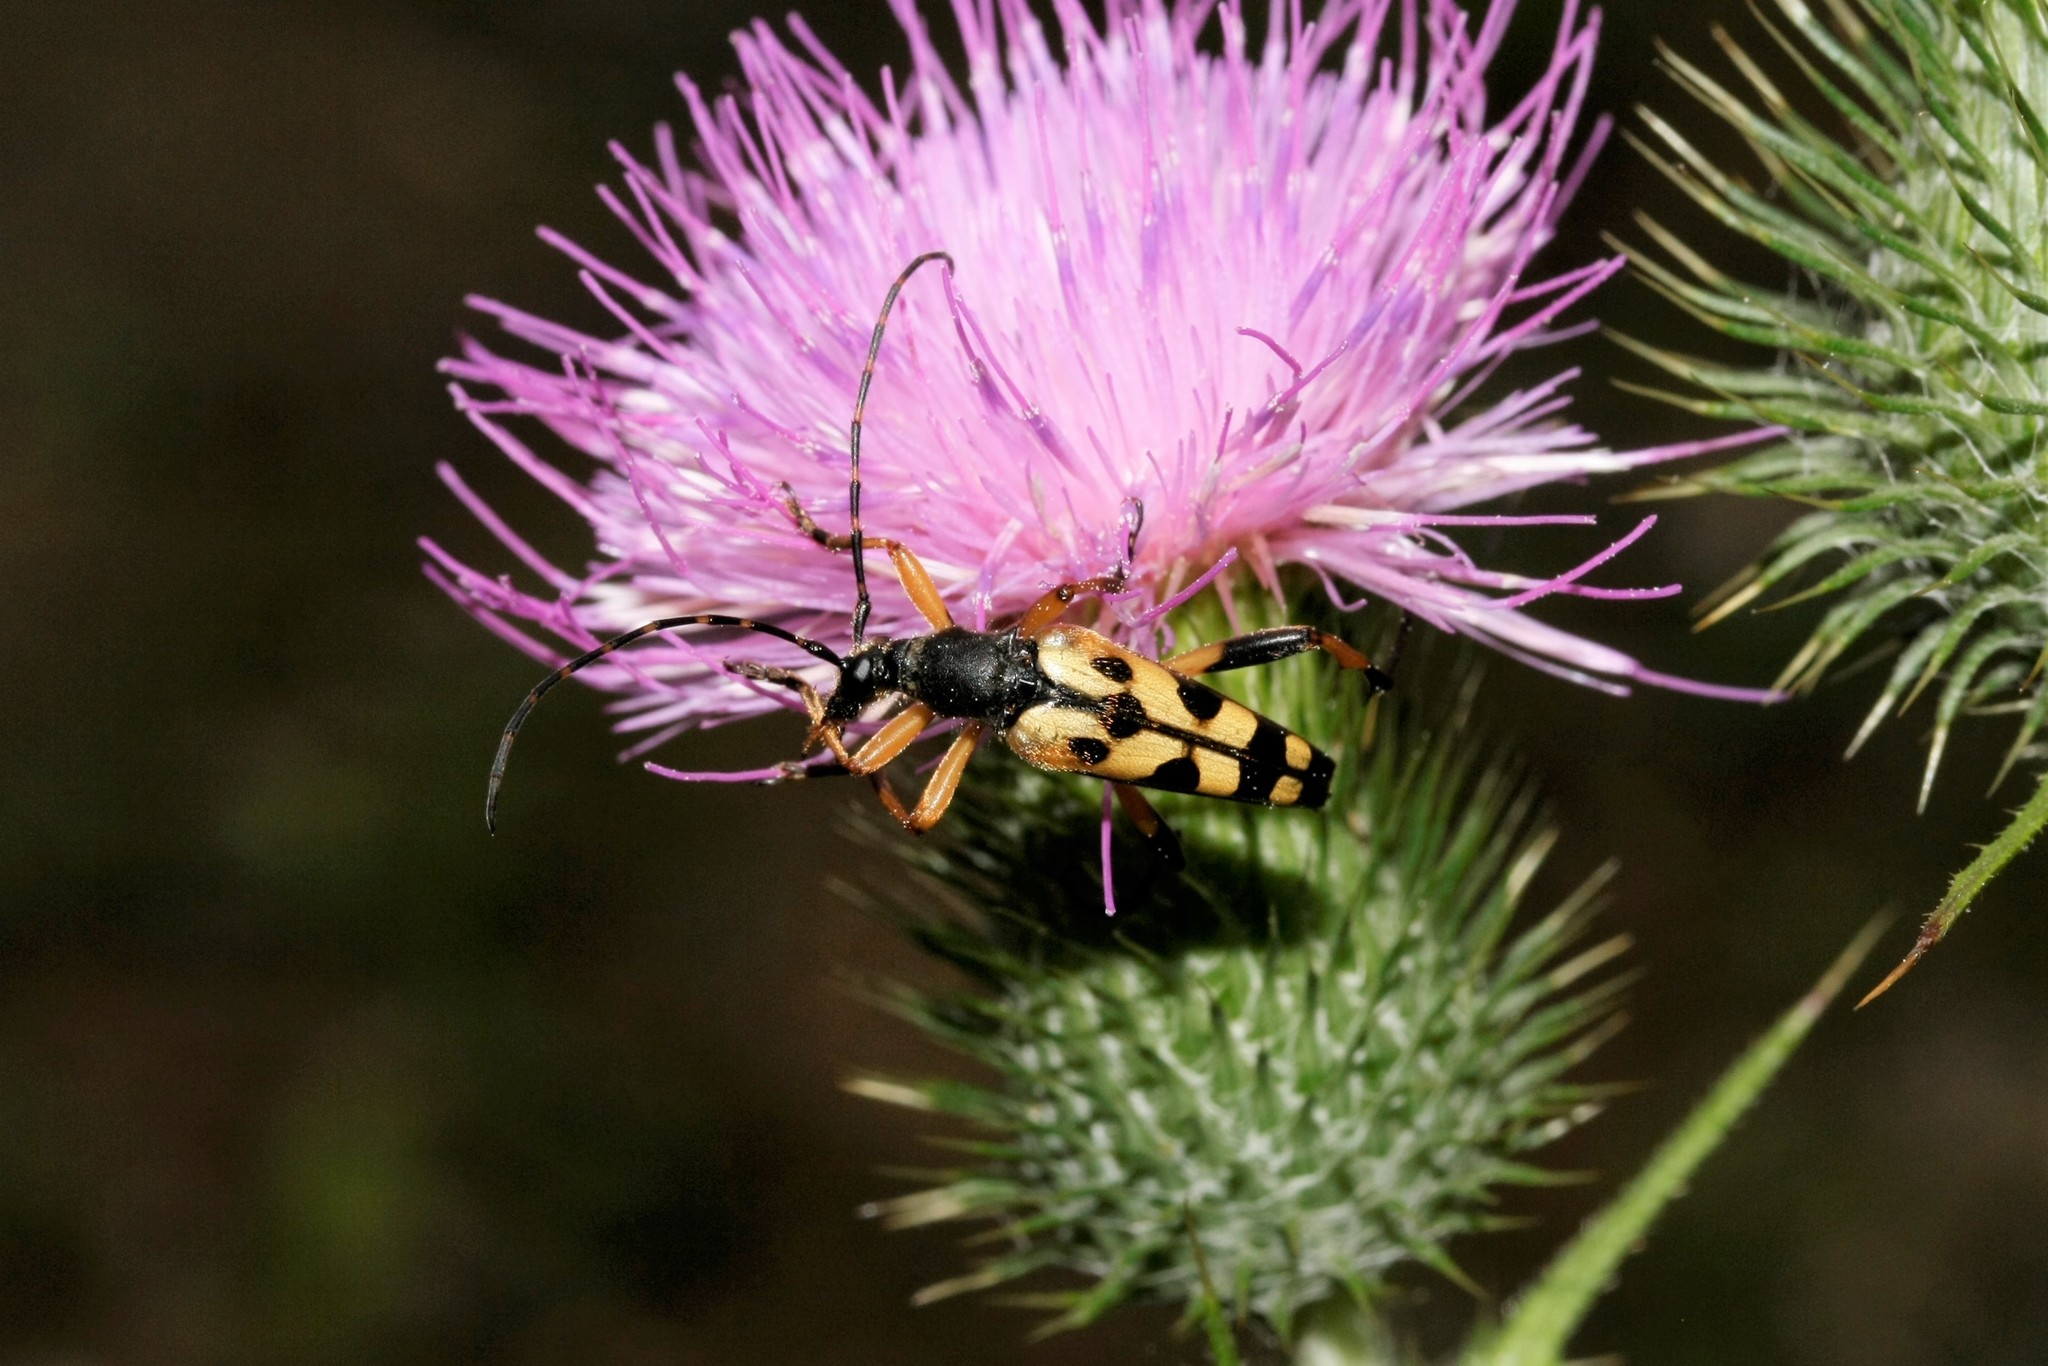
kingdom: Animalia
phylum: Arthropoda
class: Insecta
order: Coleoptera
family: Cerambycidae
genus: Rutpela
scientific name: Rutpela maculata
